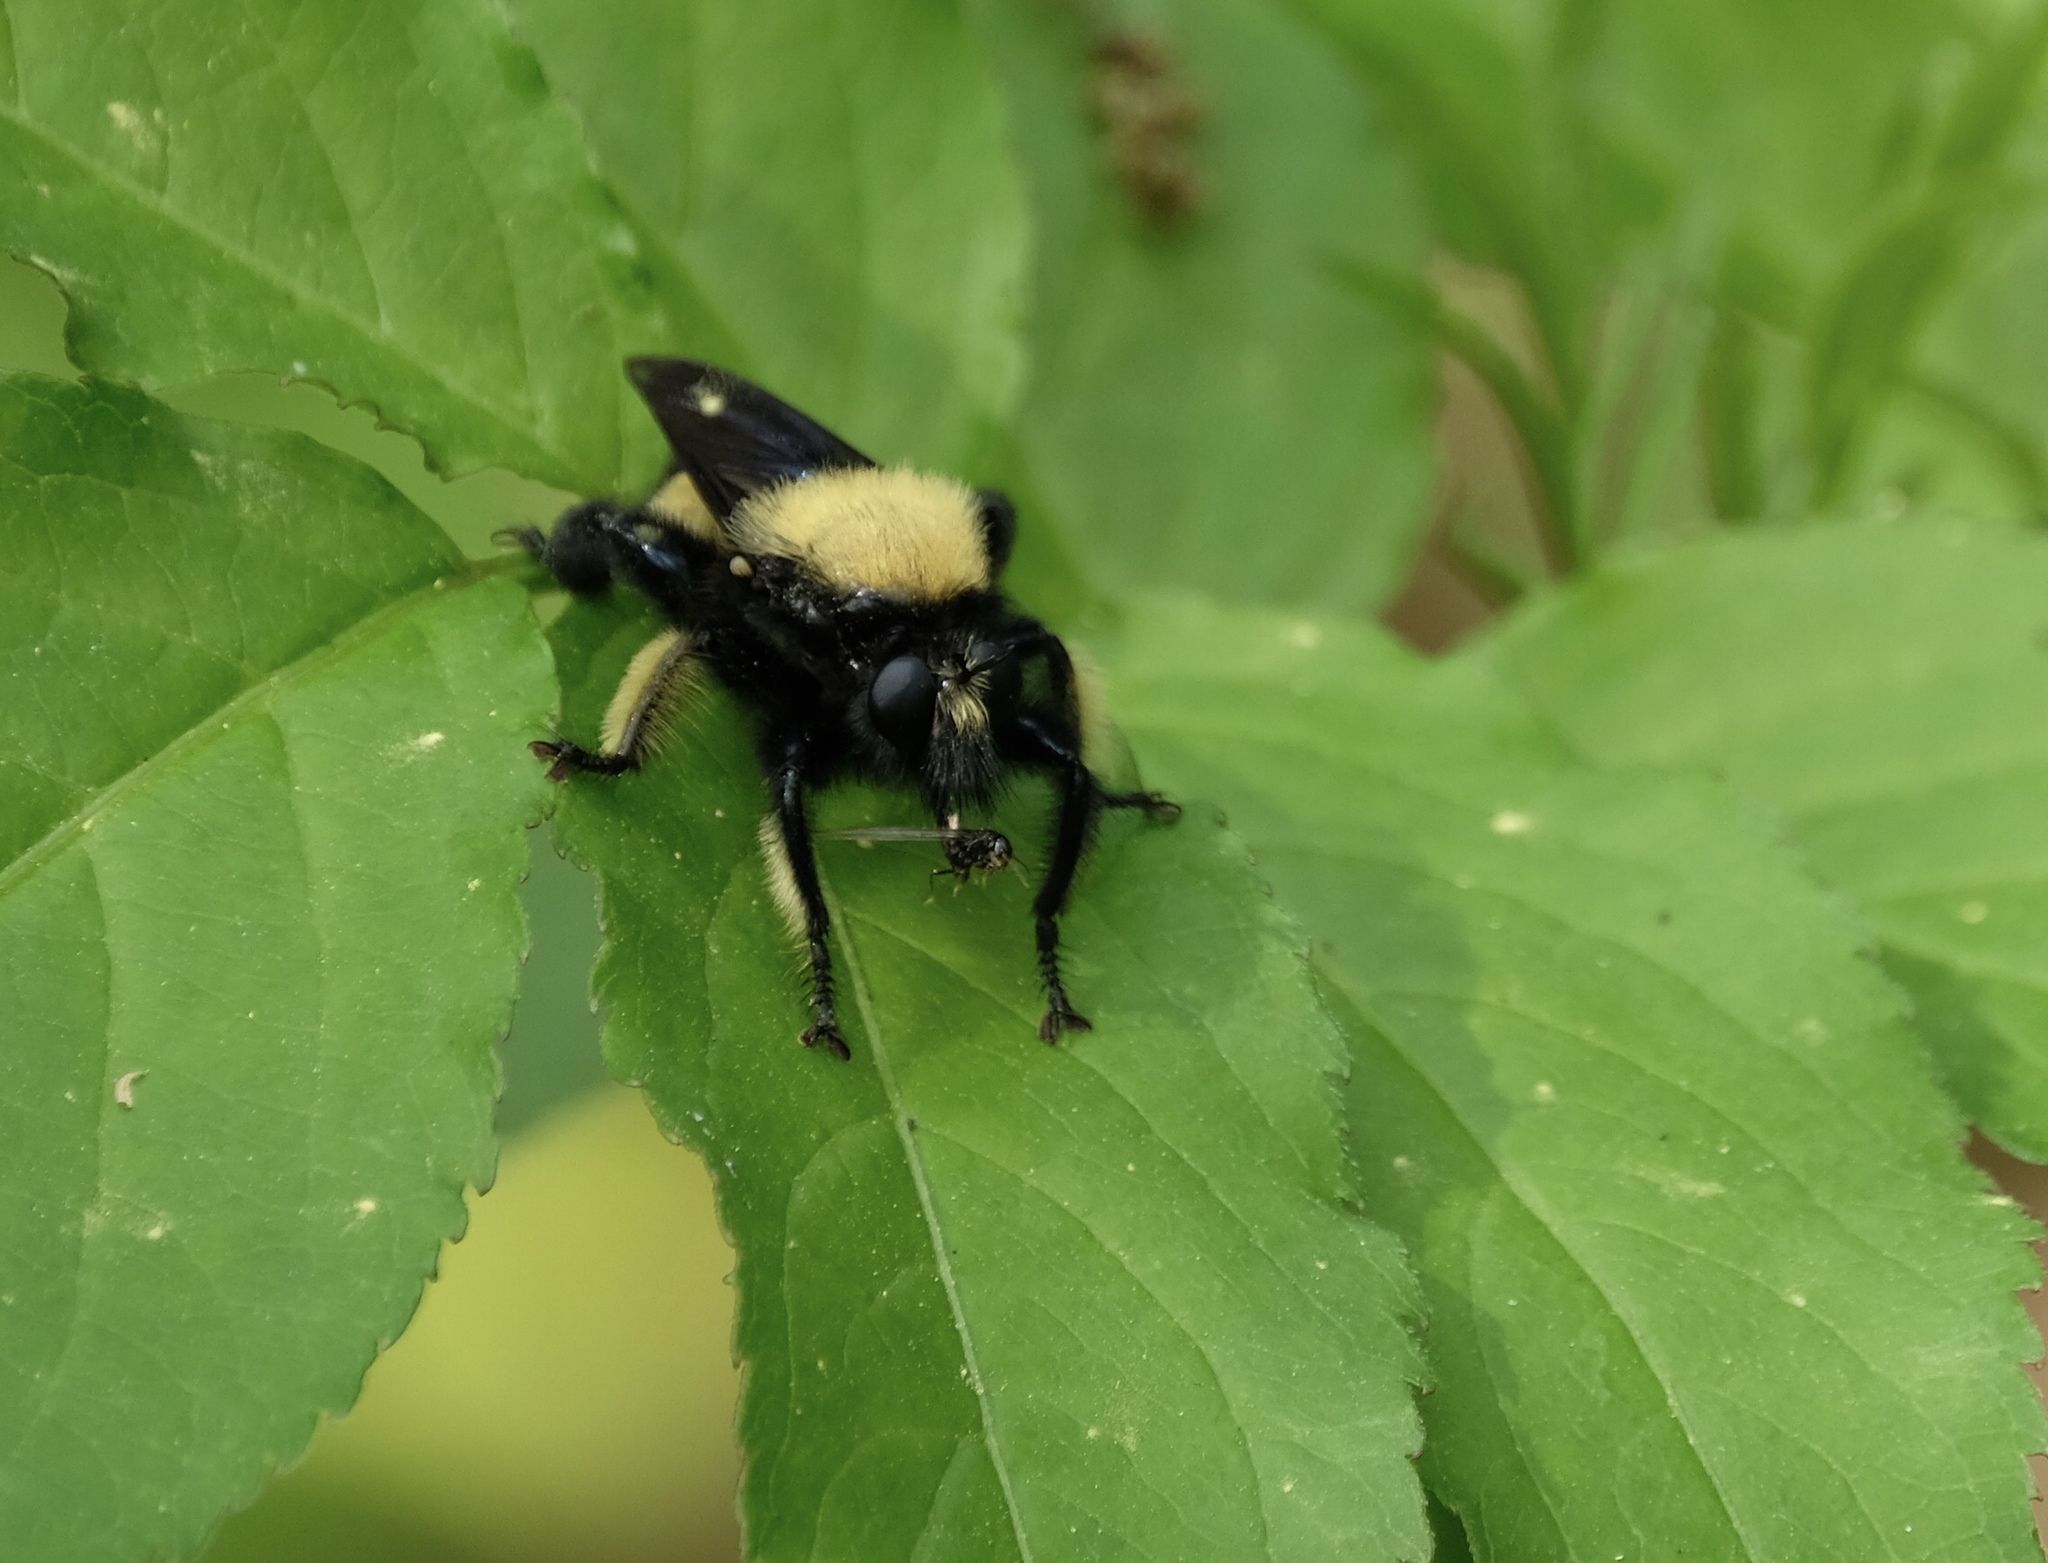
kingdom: Animalia
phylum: Arthropoda
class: Insecta
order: Diptera
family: Asilidae
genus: Laphria
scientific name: Laphria macquarti
